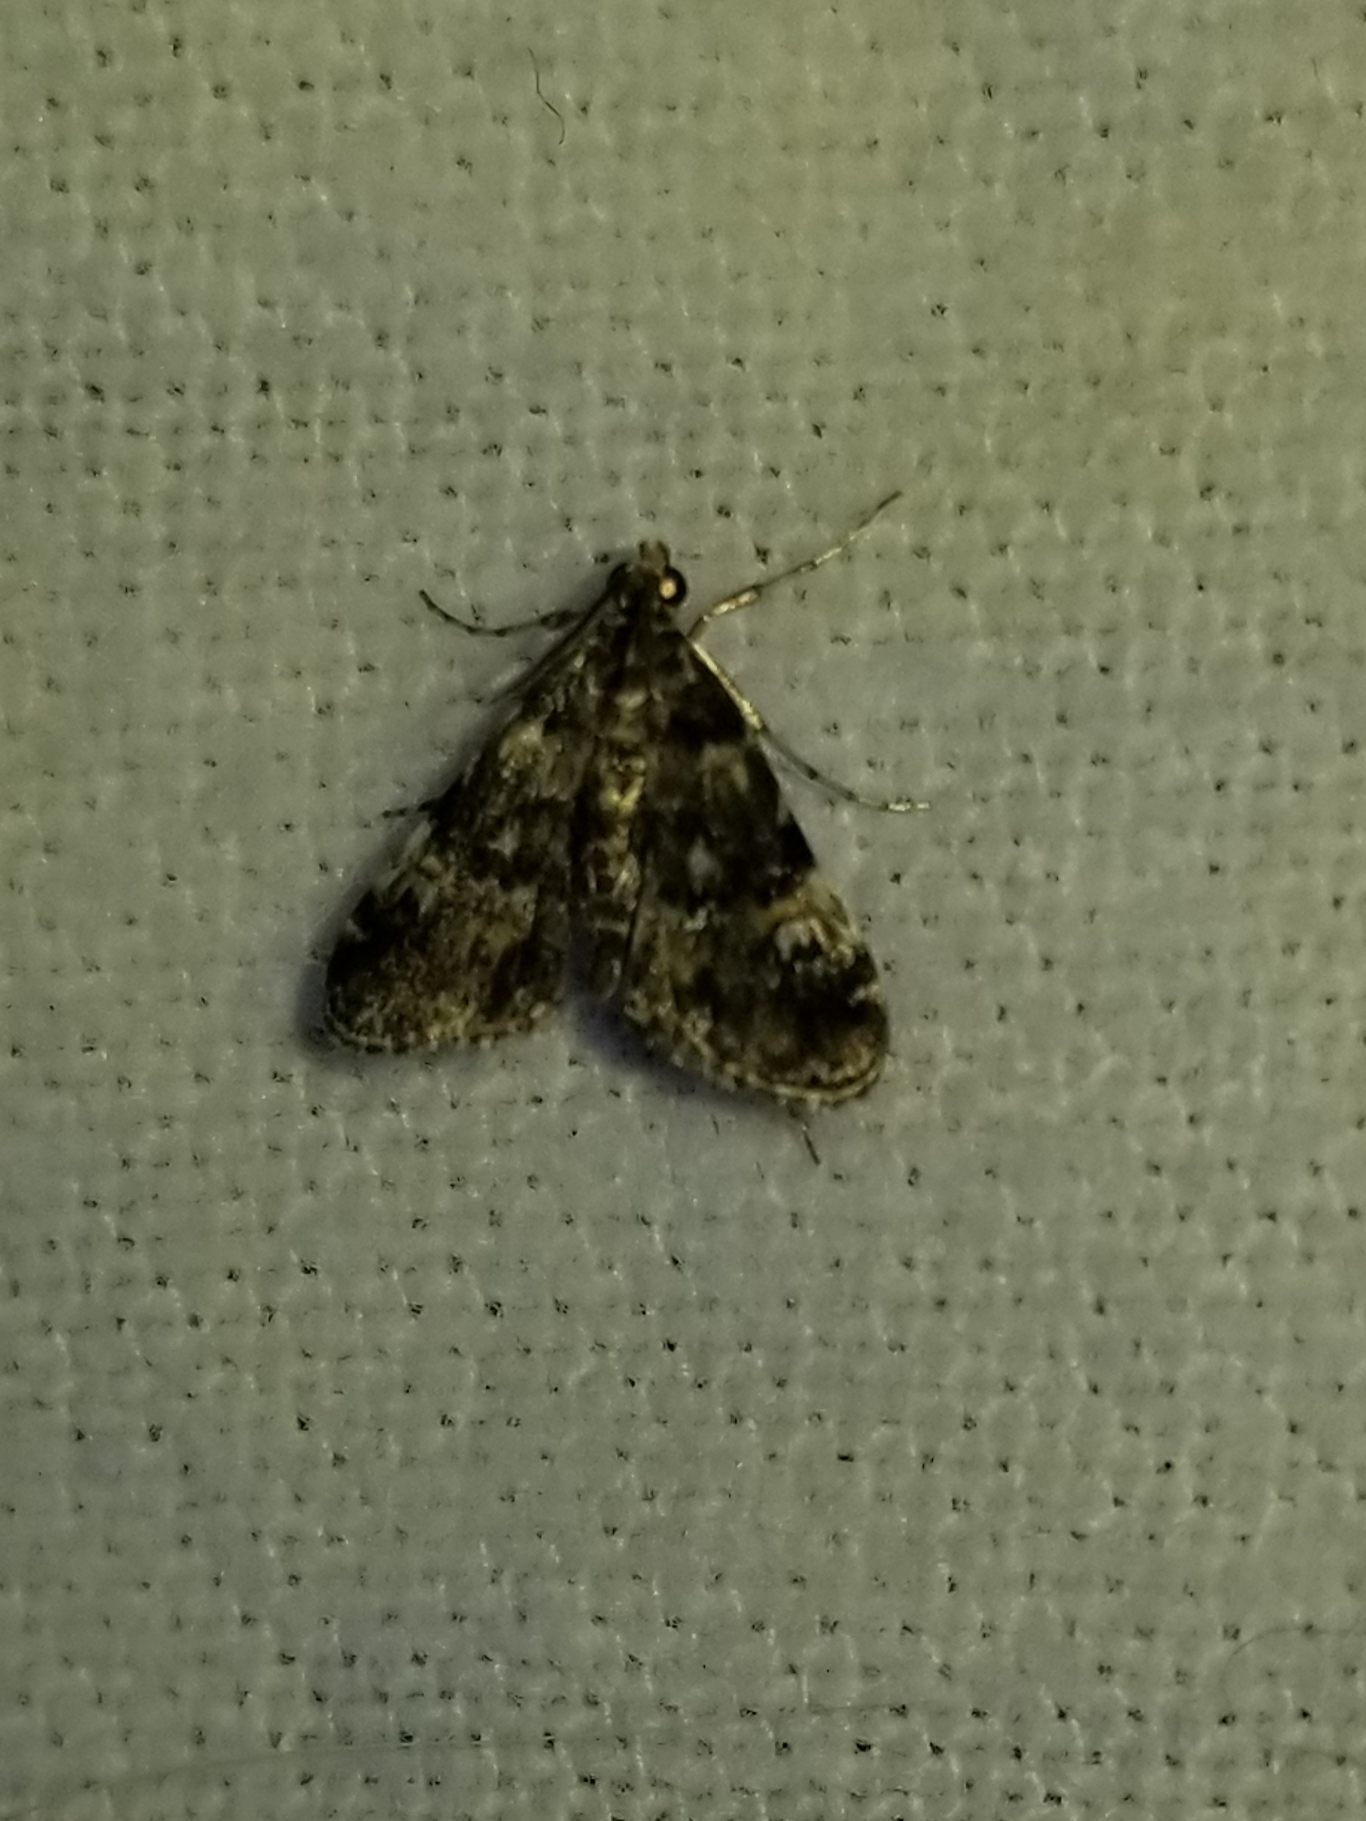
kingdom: Animalia
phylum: Arthropoda
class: Insecta
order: Lepidoptera
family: Crambidae
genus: Elophila
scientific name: Elophila obliteralis
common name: Waterlily leafcutter moth
